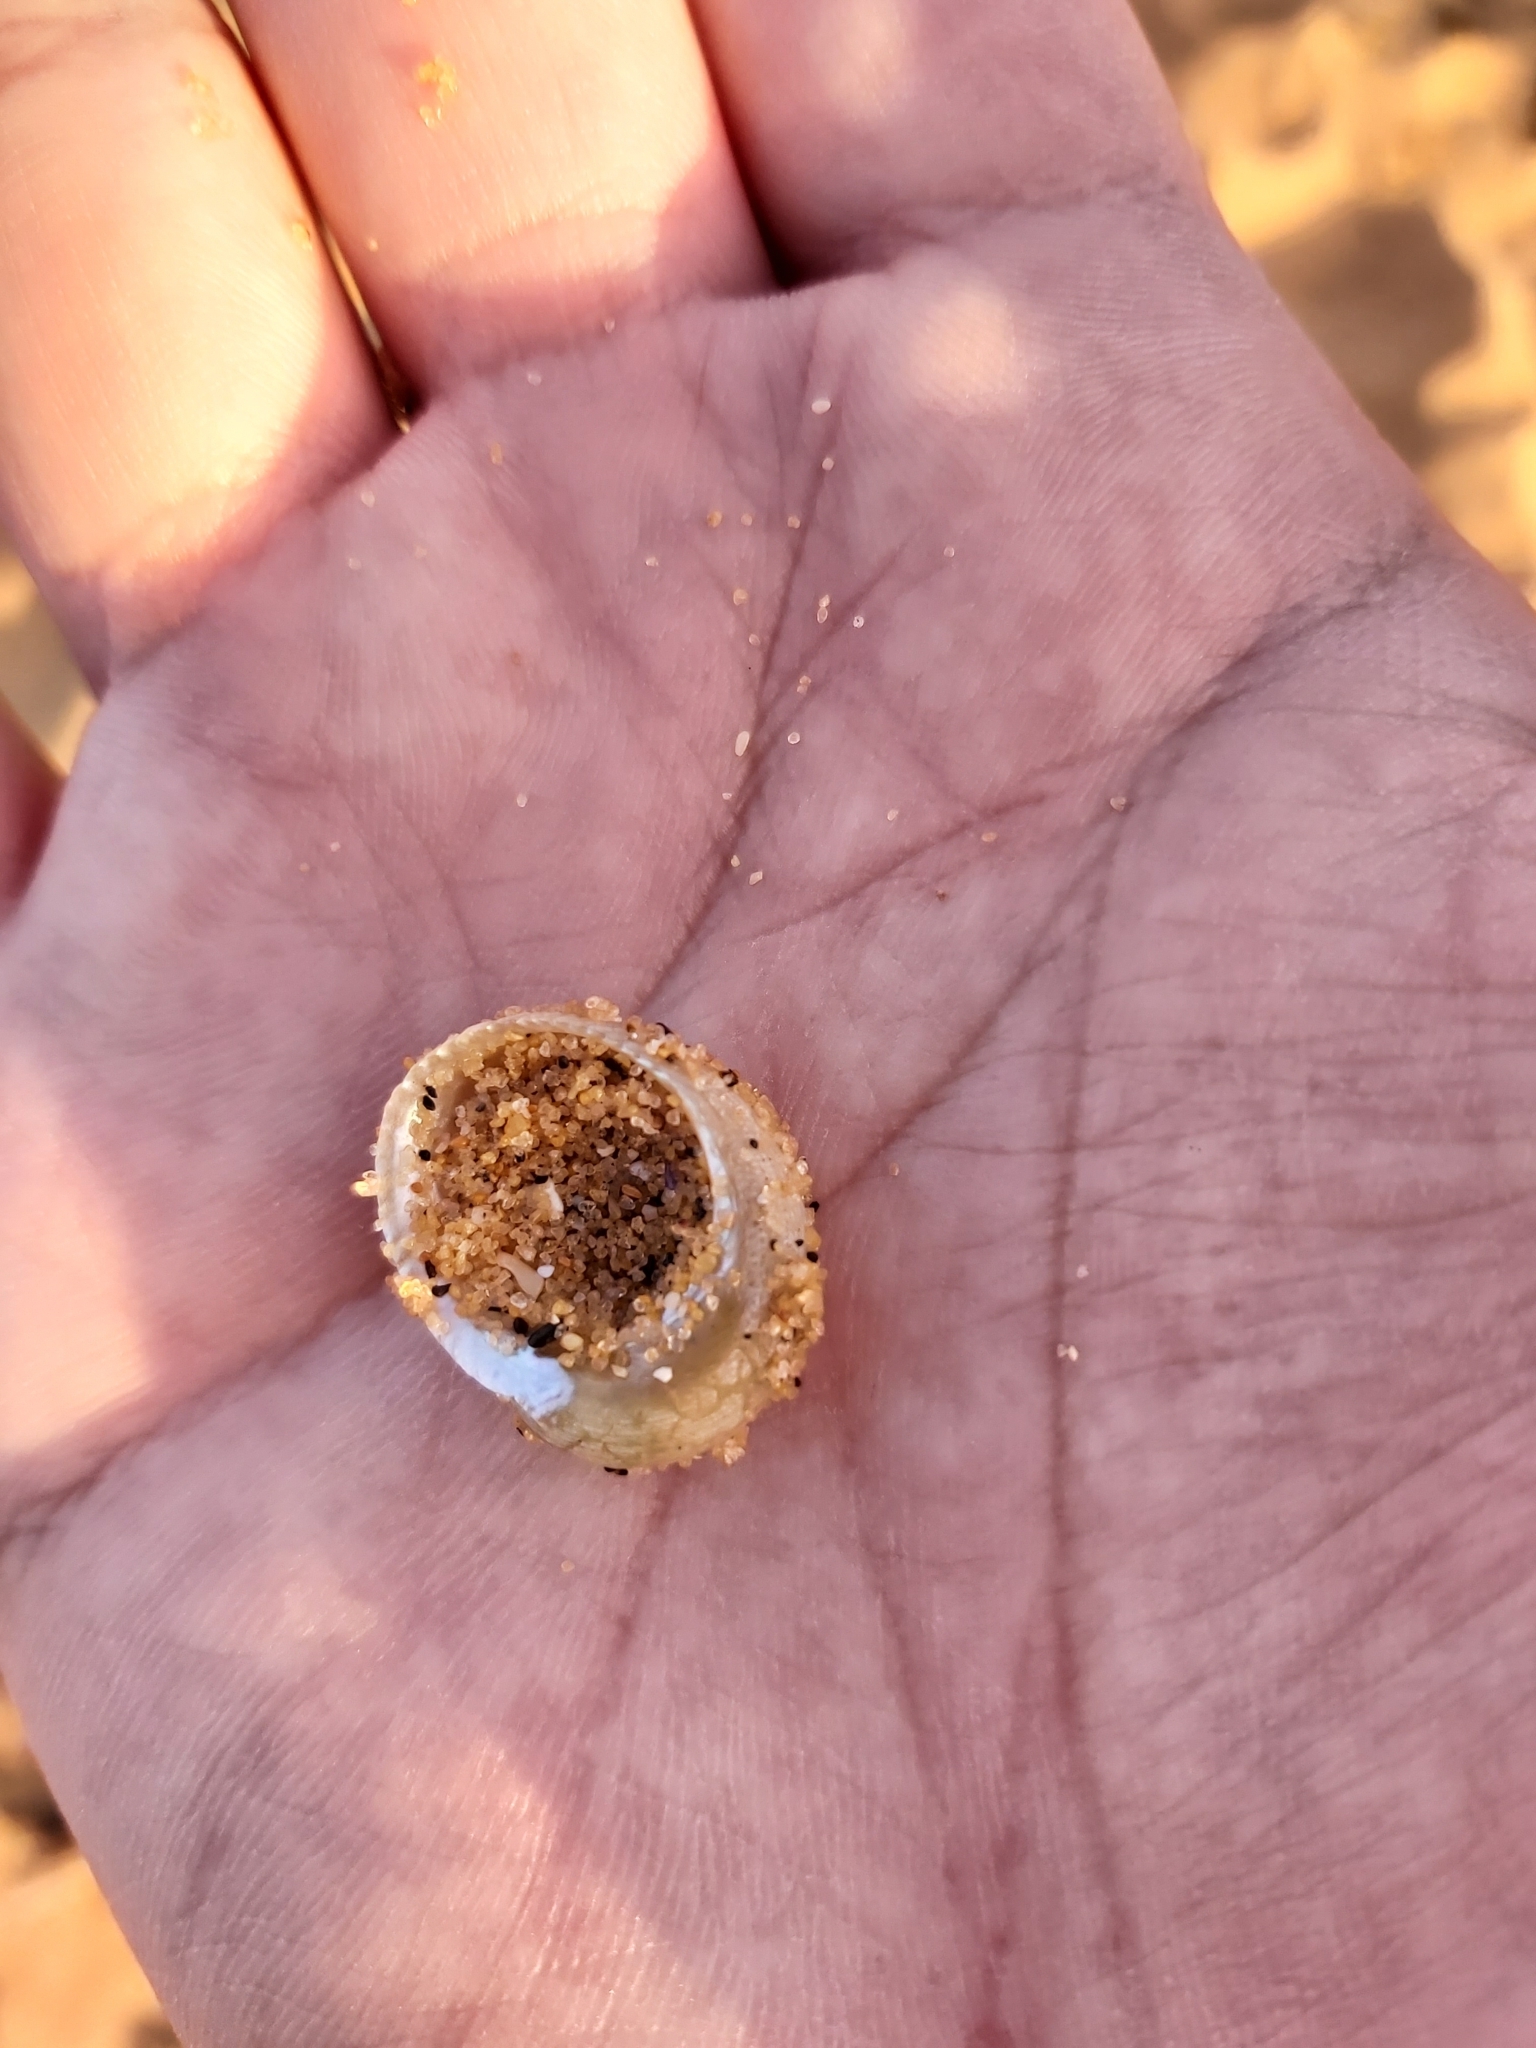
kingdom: Animalia
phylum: Mollusca
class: Gastropoda
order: Seguenziida
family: Chilodontaidae
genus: Granata
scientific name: Granata imbricata
